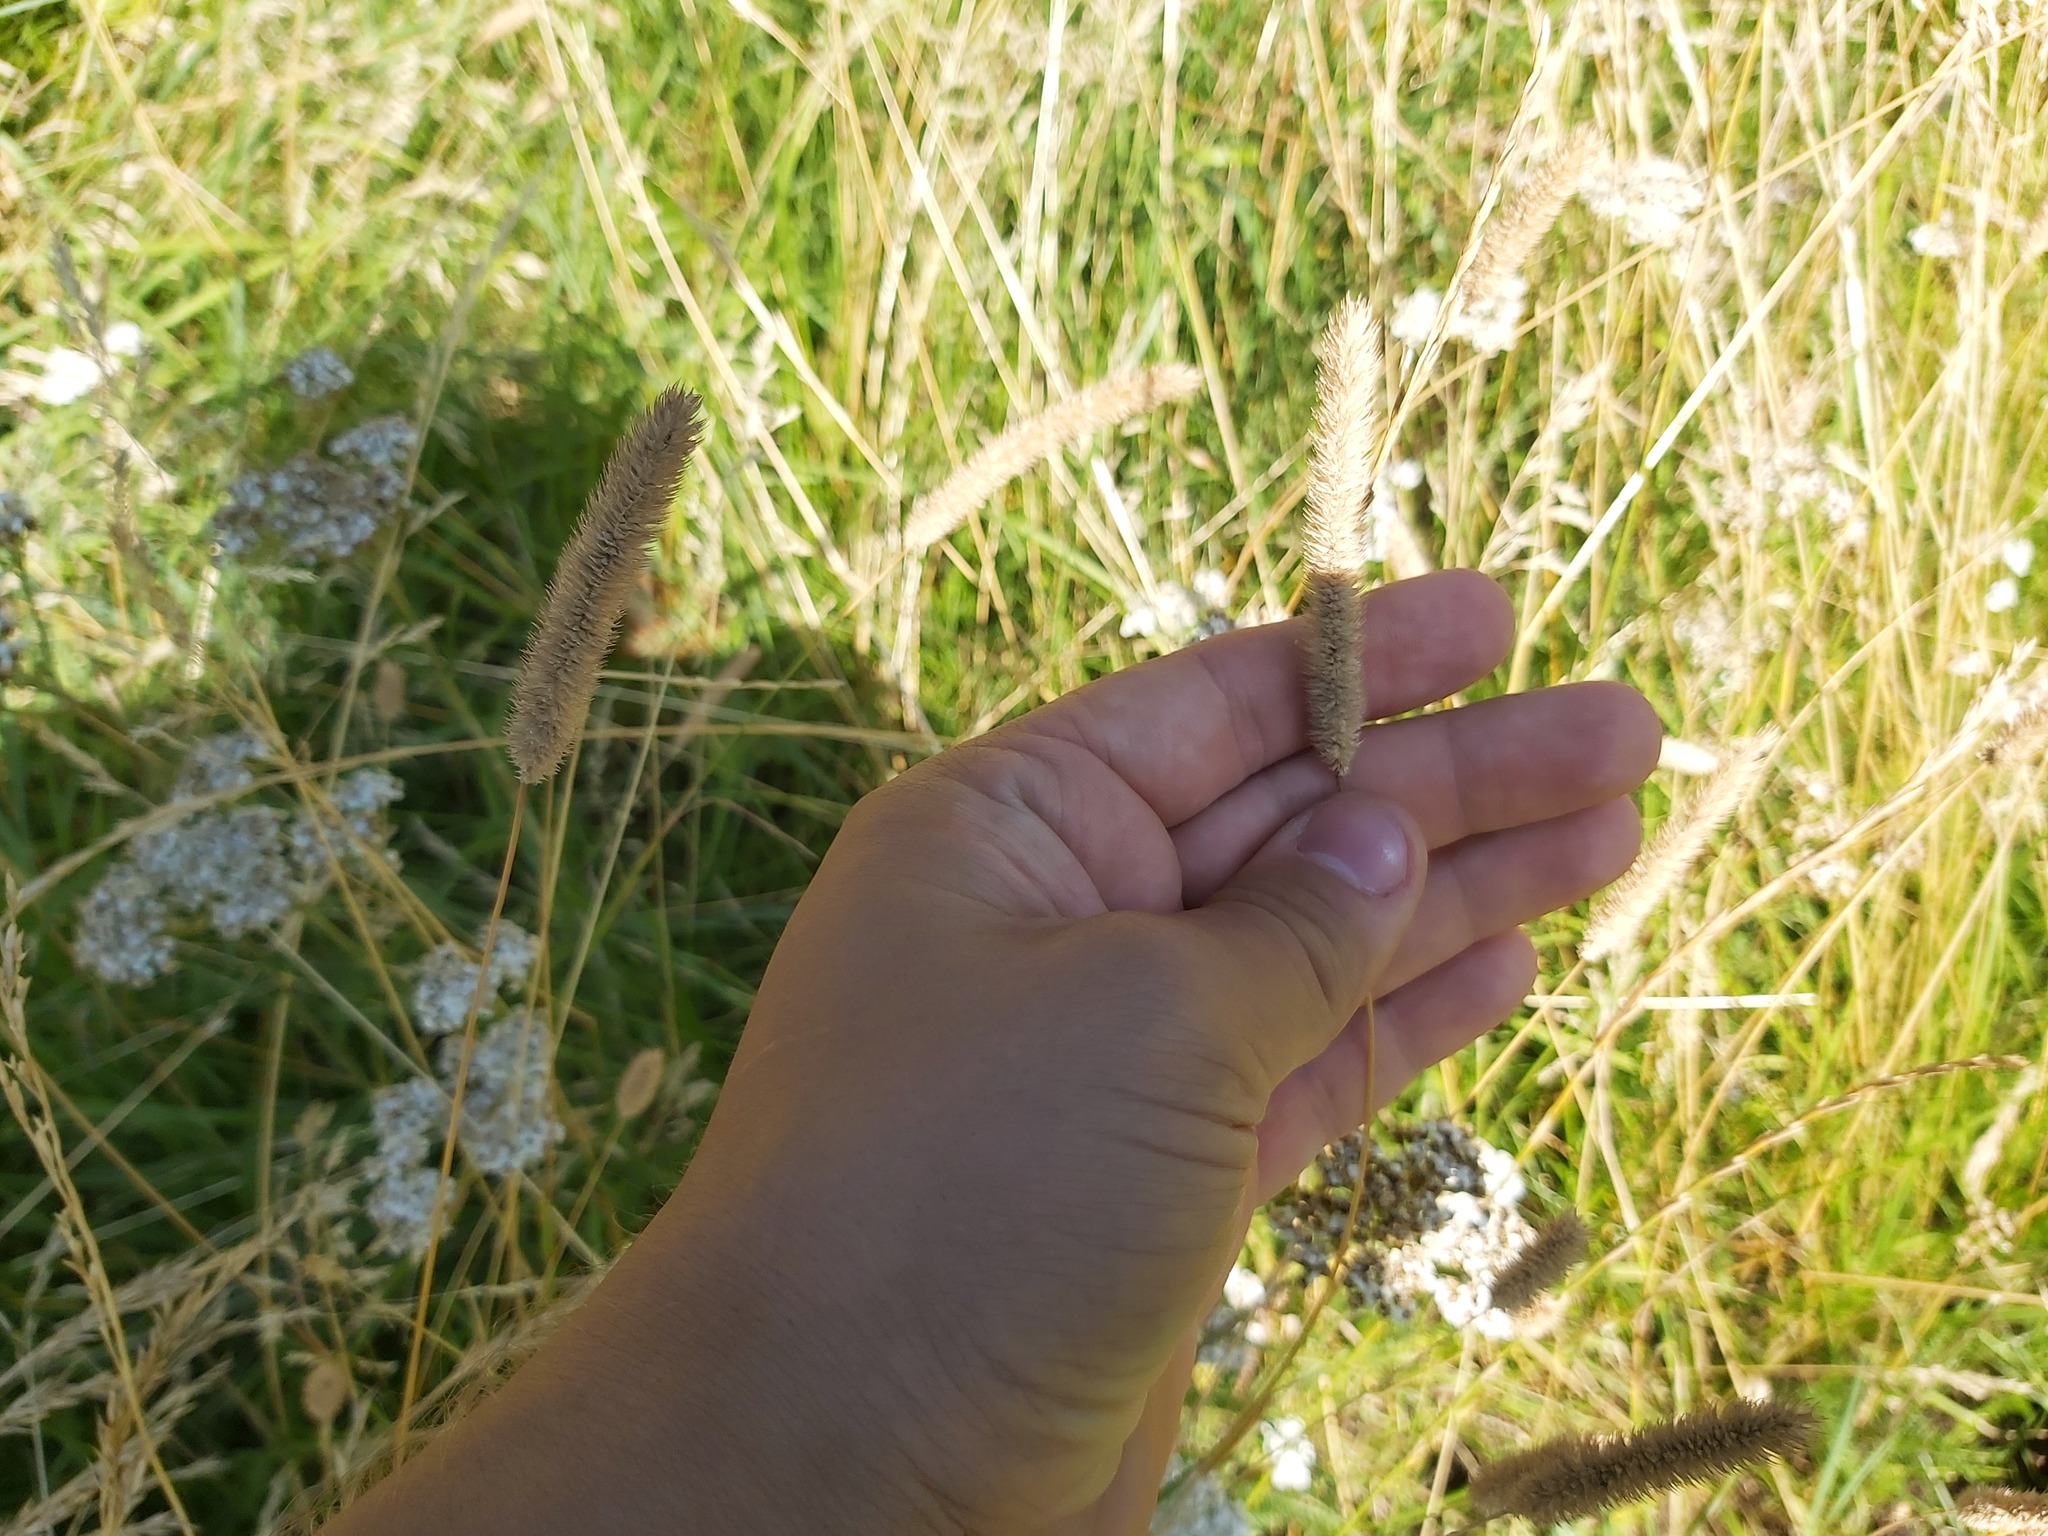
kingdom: Plantae
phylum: Tracheophyta
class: Liliopsida
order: Poales
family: Poaceae
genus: Phleum
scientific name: Phleum pratense
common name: Timothy grass
